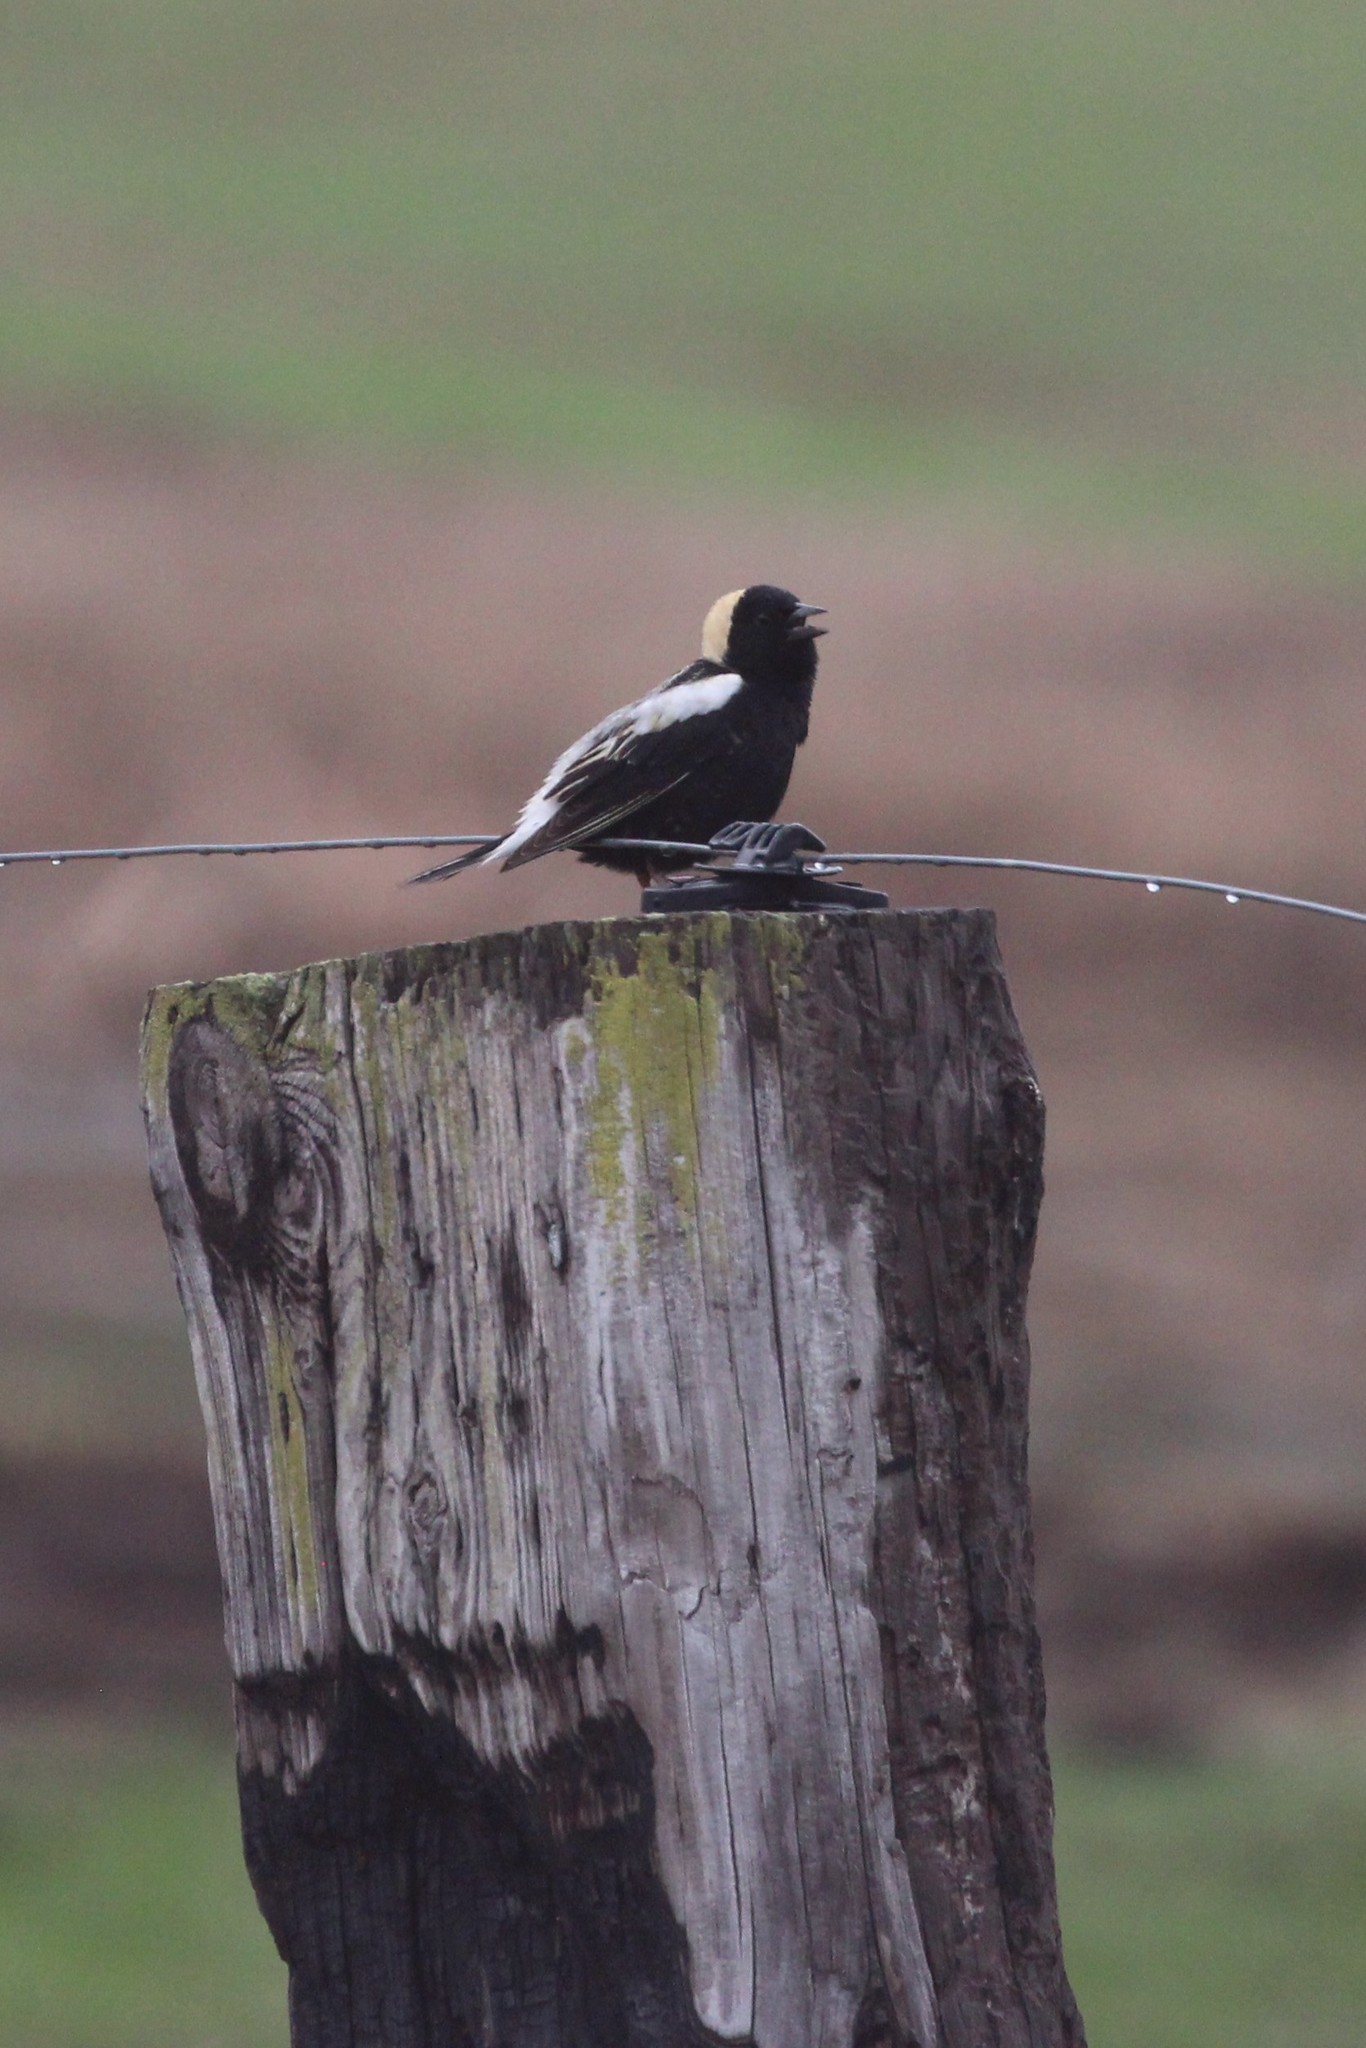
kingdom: Animalia
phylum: Chordata
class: Aves
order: Passeriformes
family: Icteridae
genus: Dolichonyx
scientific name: Dolichonyx oryzivorus
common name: Bobolink
